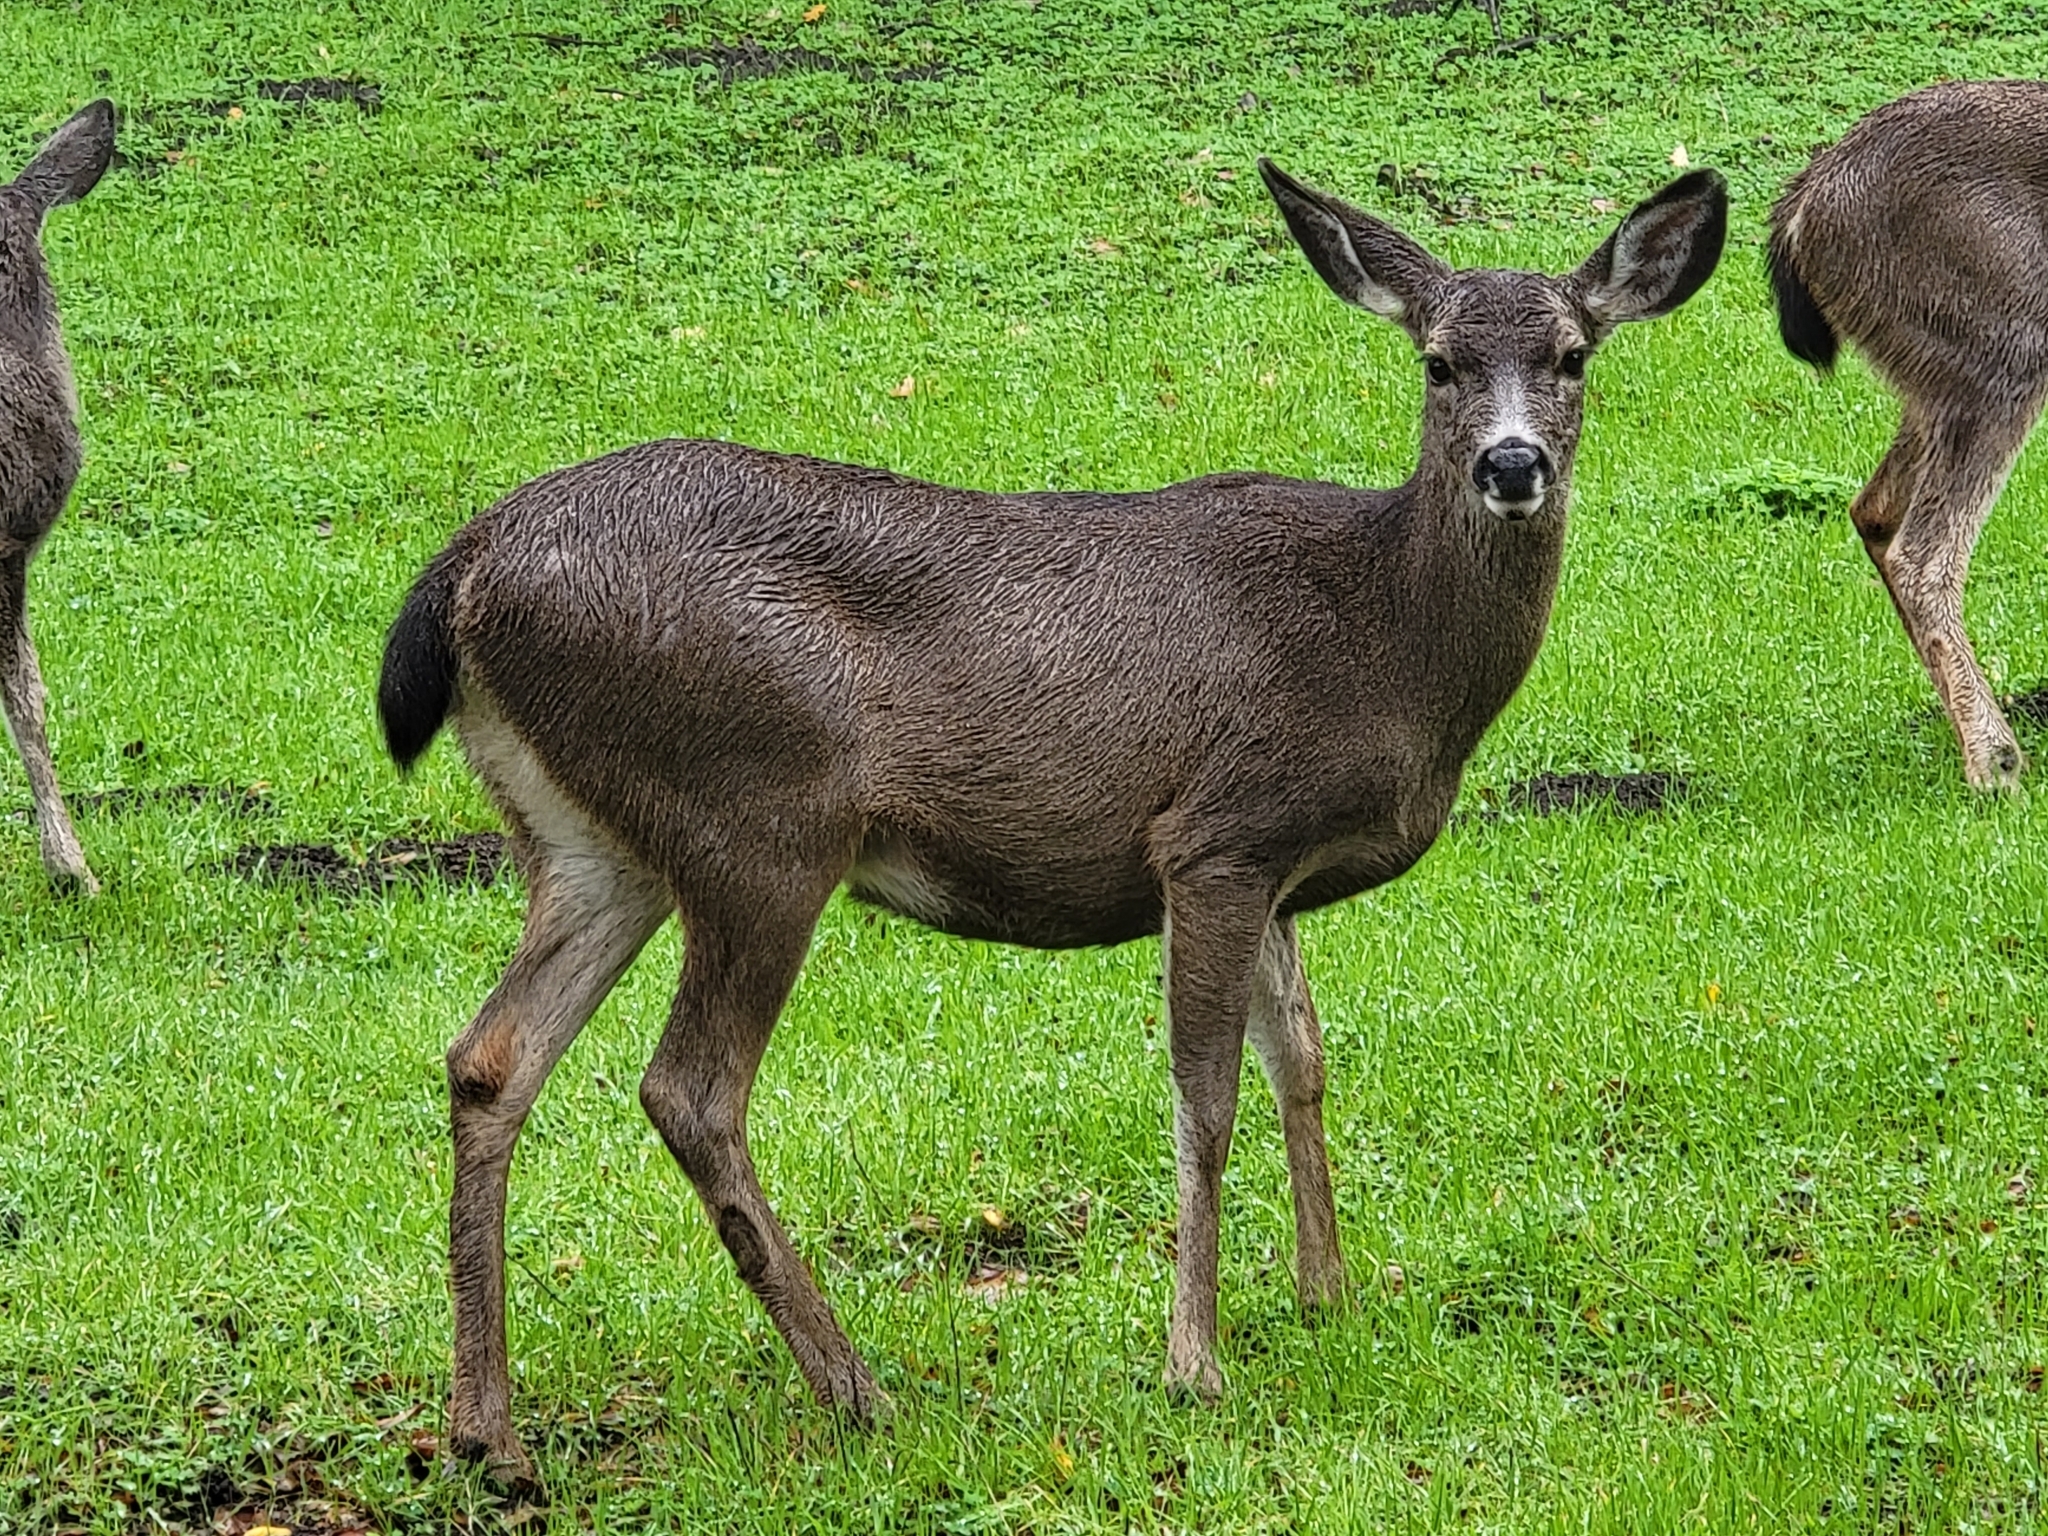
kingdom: Animalia
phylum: Chordata
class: Mammalia
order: Artiodactyla
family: Cervidae
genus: Odocoileus
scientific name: Odocoileus hemionus
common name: Mule deer
